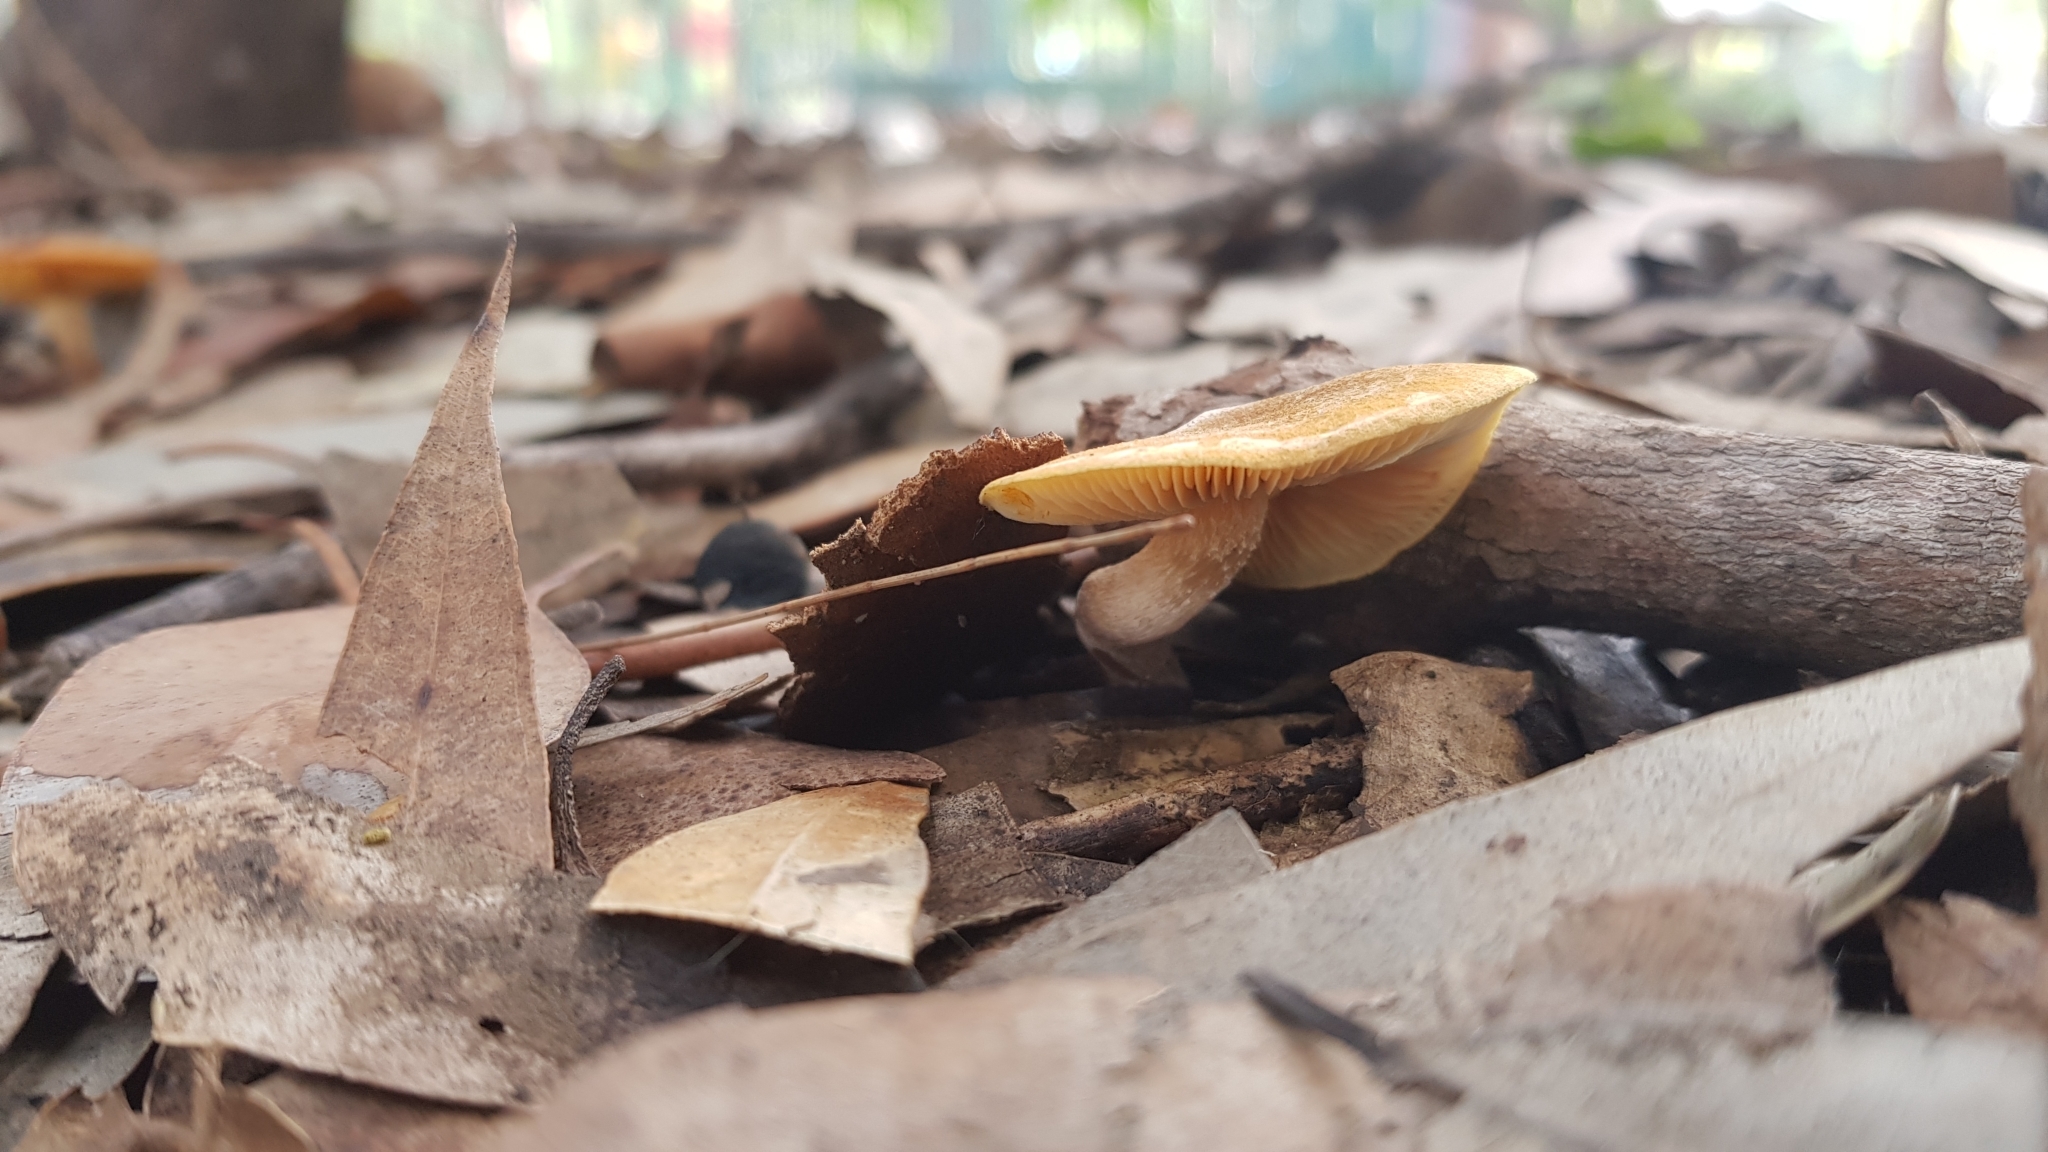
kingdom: Fungi
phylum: Basidiomycota
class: Agaricomycetes
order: Agaricales
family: Hymenogastraceae
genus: Gymnopilus
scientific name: Gymnopilus allantopus
